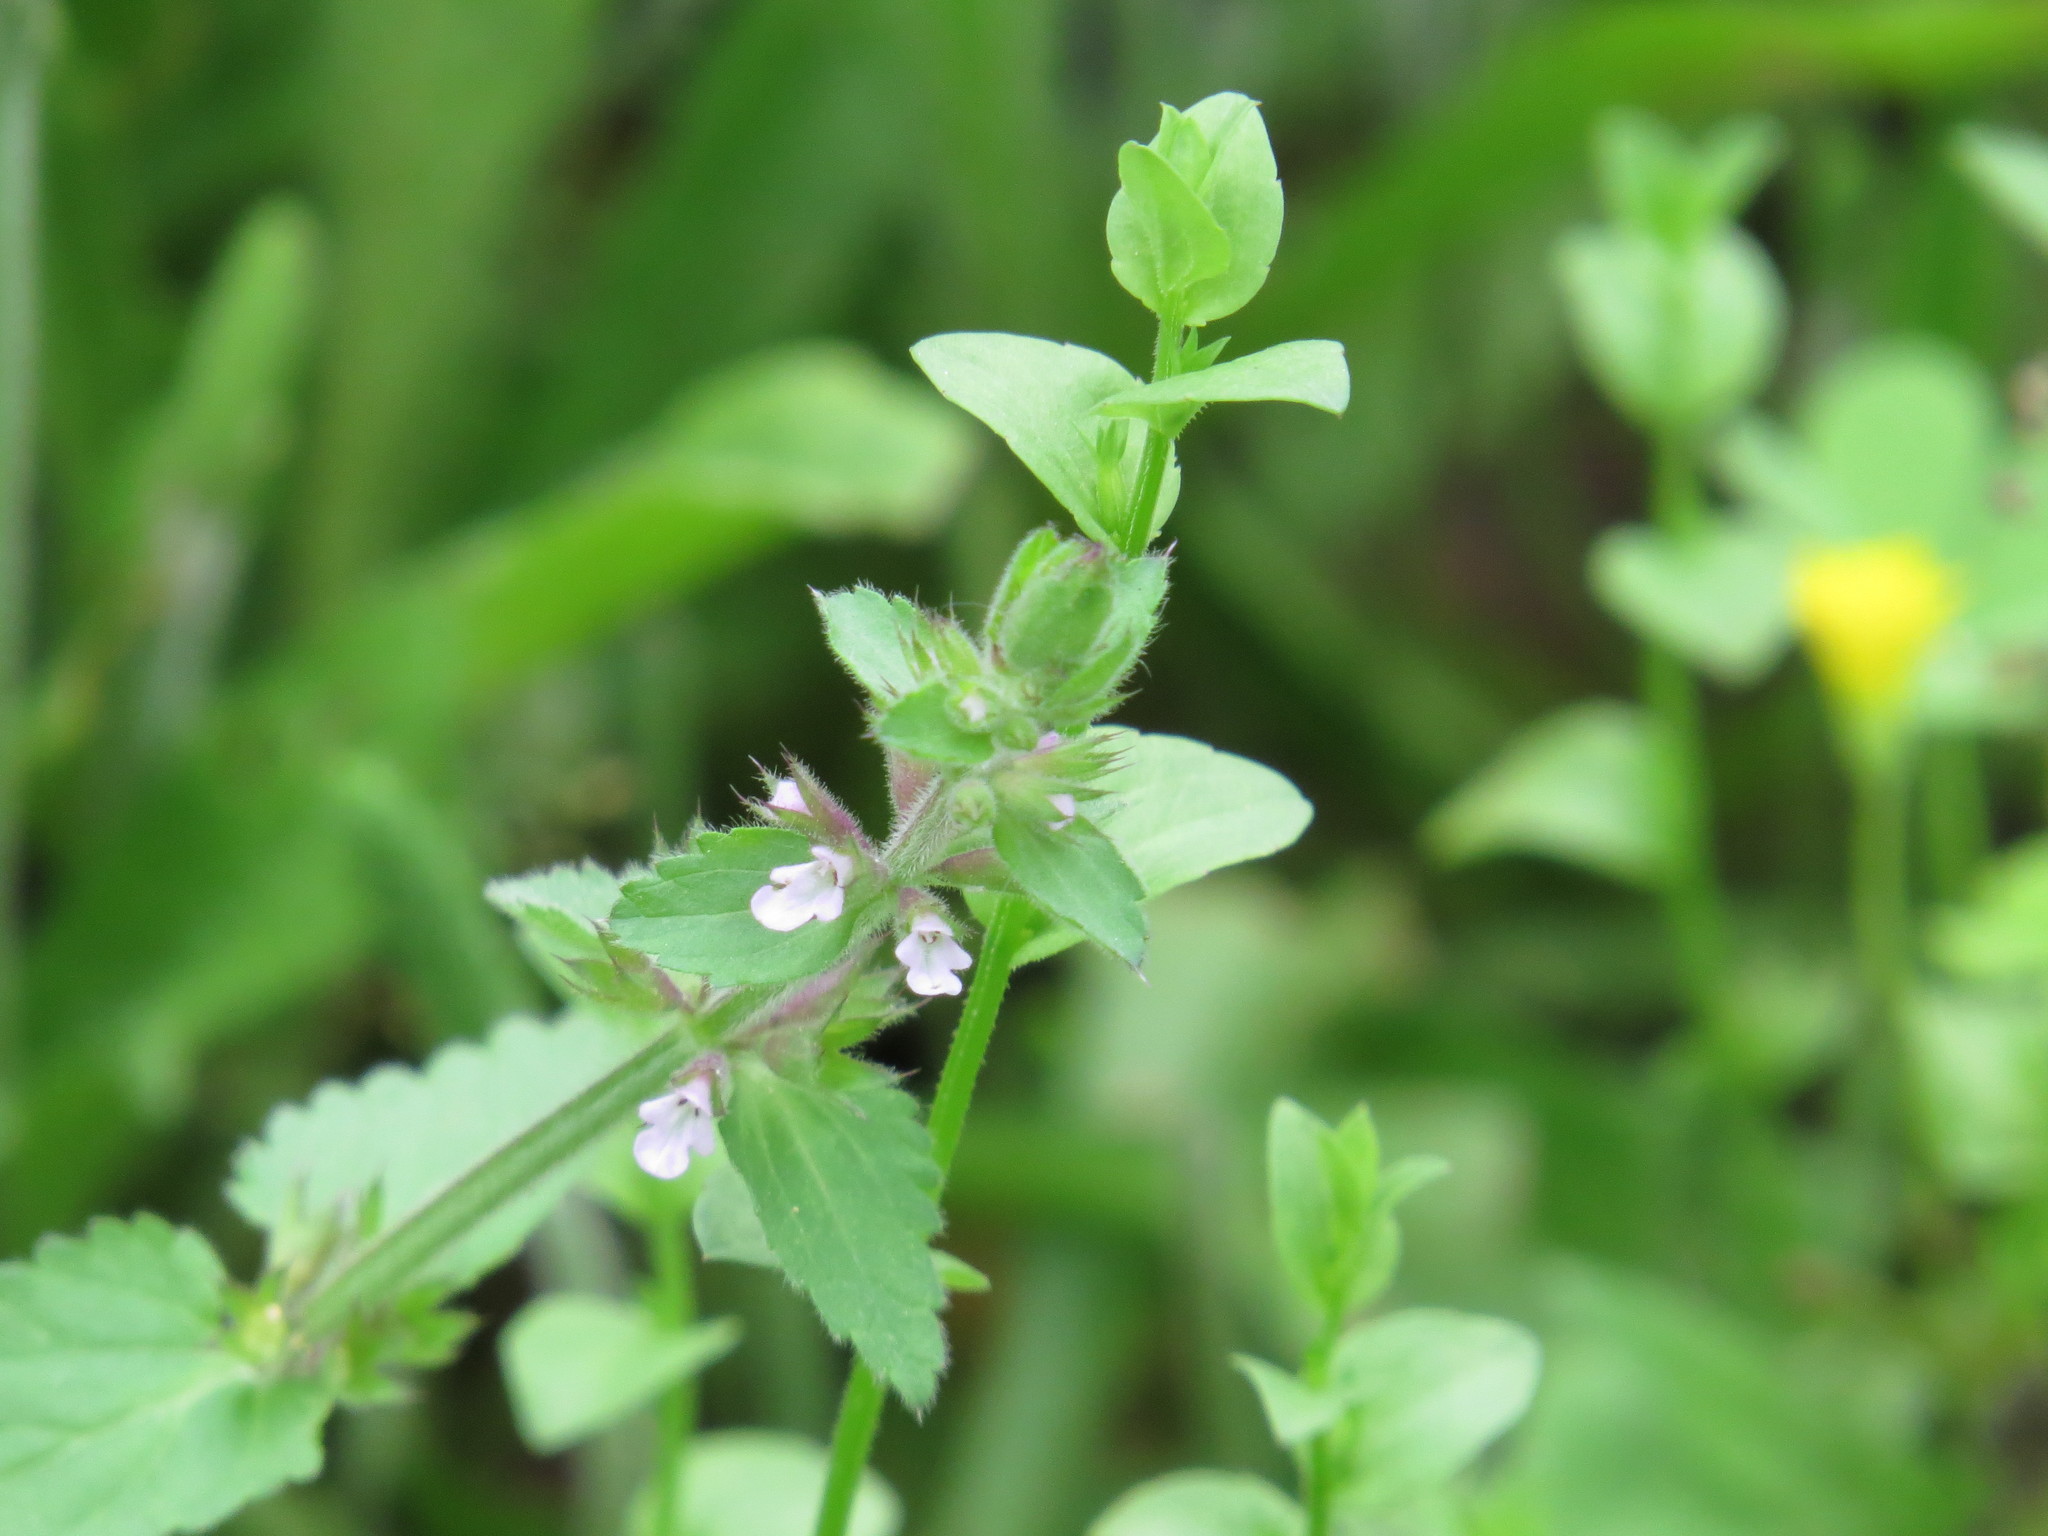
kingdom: Plantae
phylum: Tracheophyta
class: Magnoliopsida
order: Lamiales
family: Lamiaceae
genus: Stachys
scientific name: Stachys
